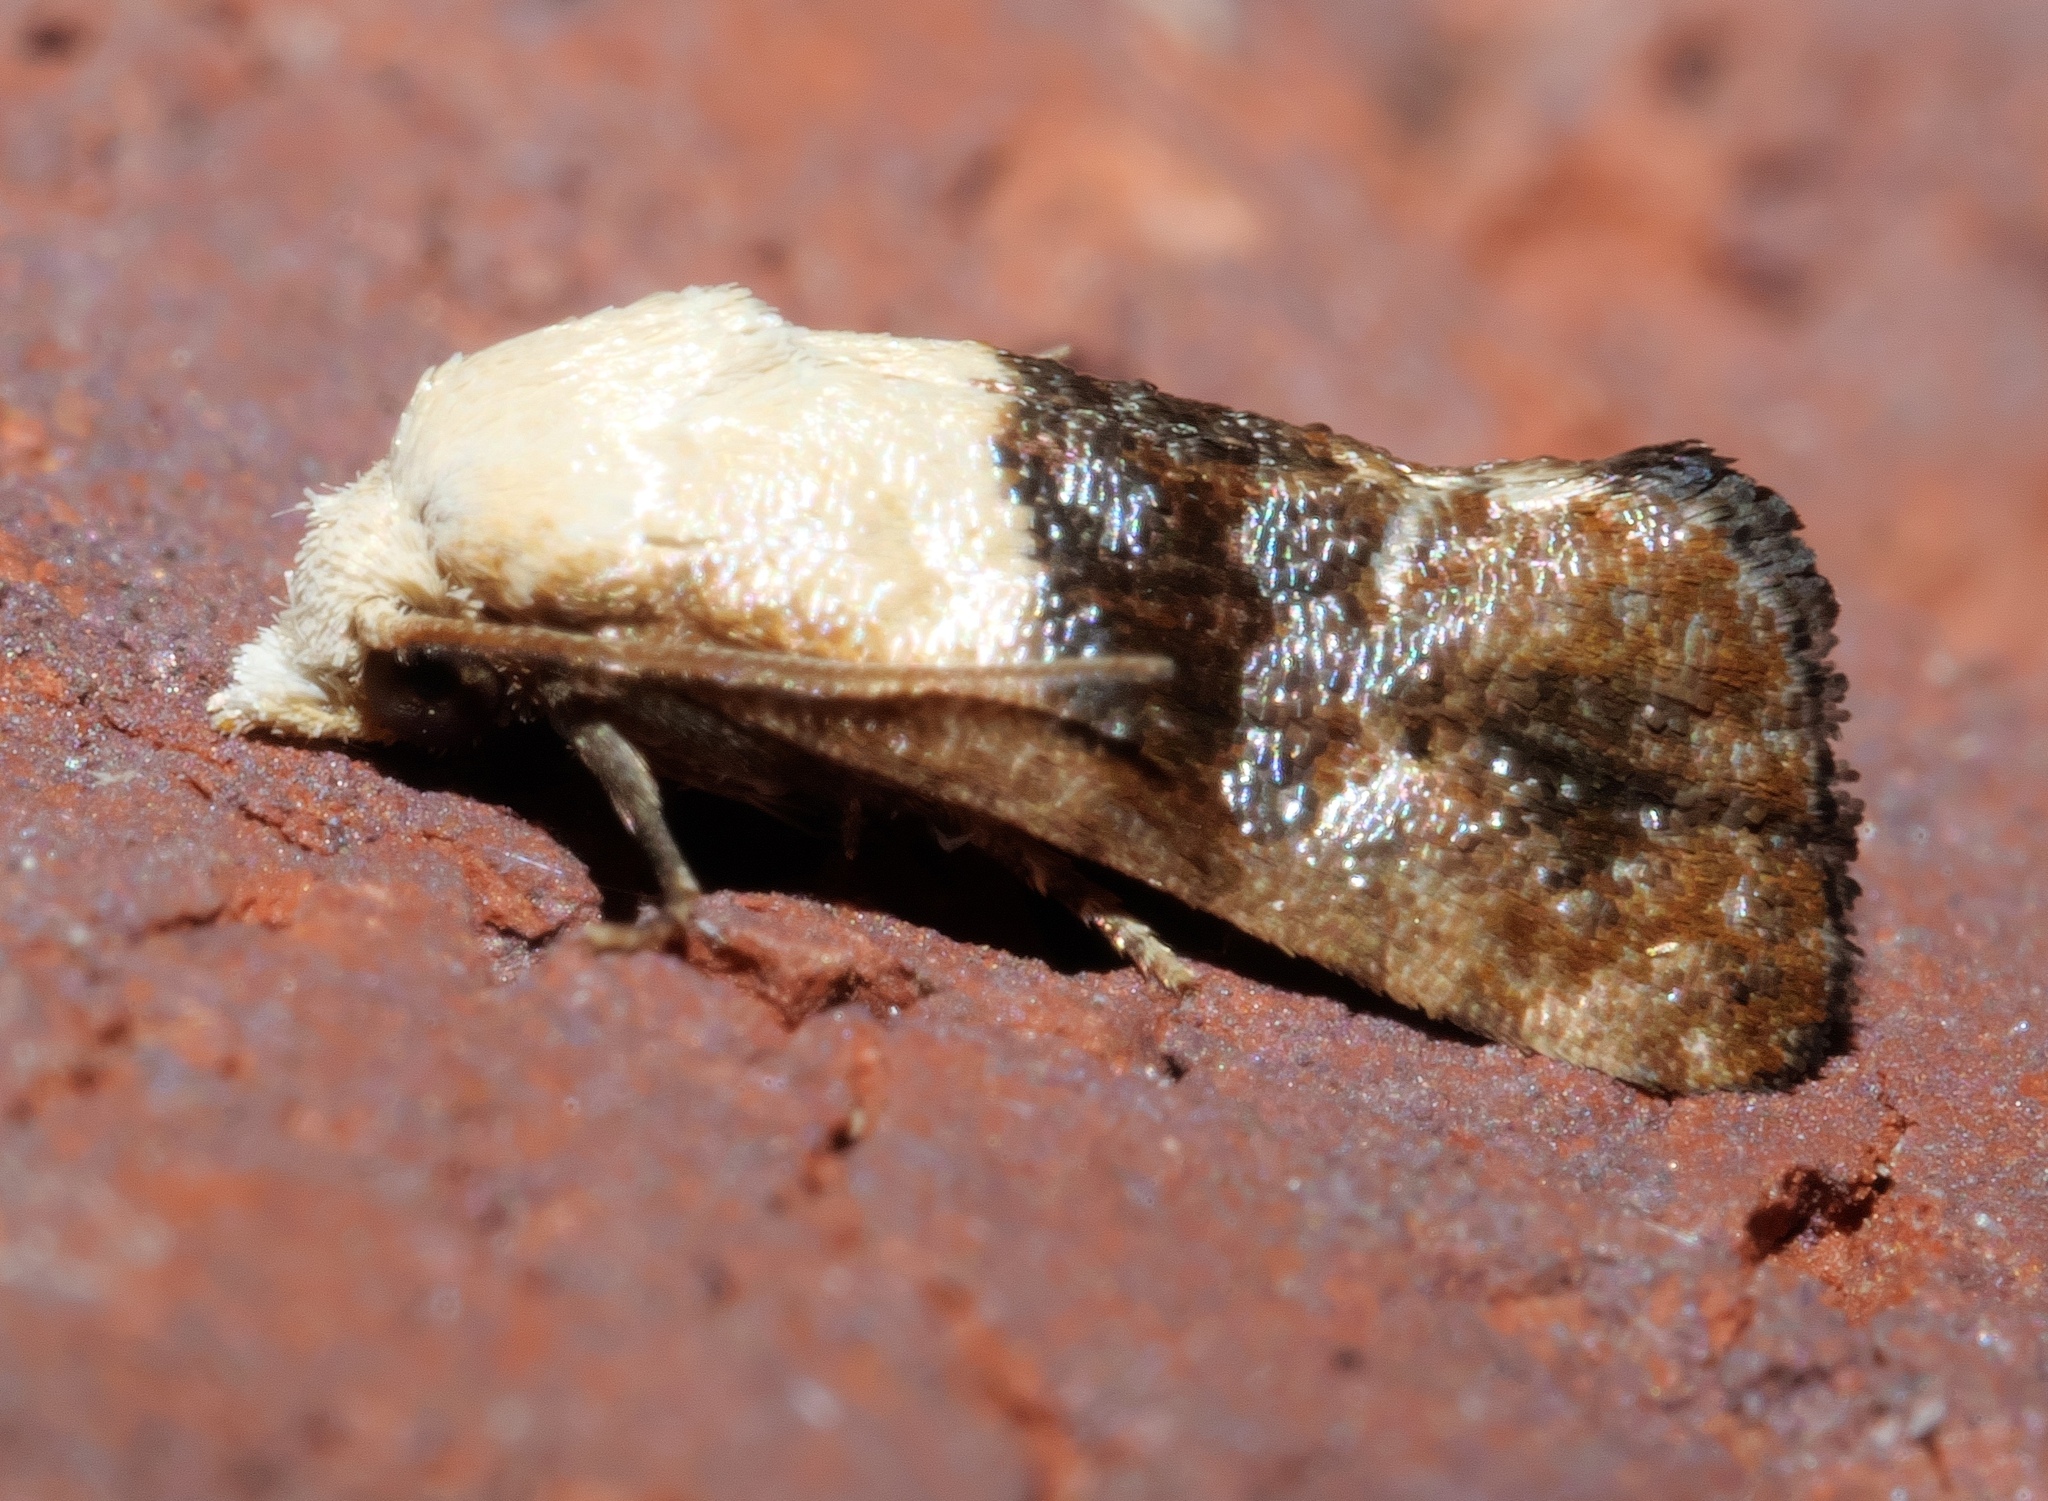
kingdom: Animalia
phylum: Arthropoda
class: Insecta
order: Lepidoptera
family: Tortricidae
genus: Eugnosta
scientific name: Eugnosta erigeronana
